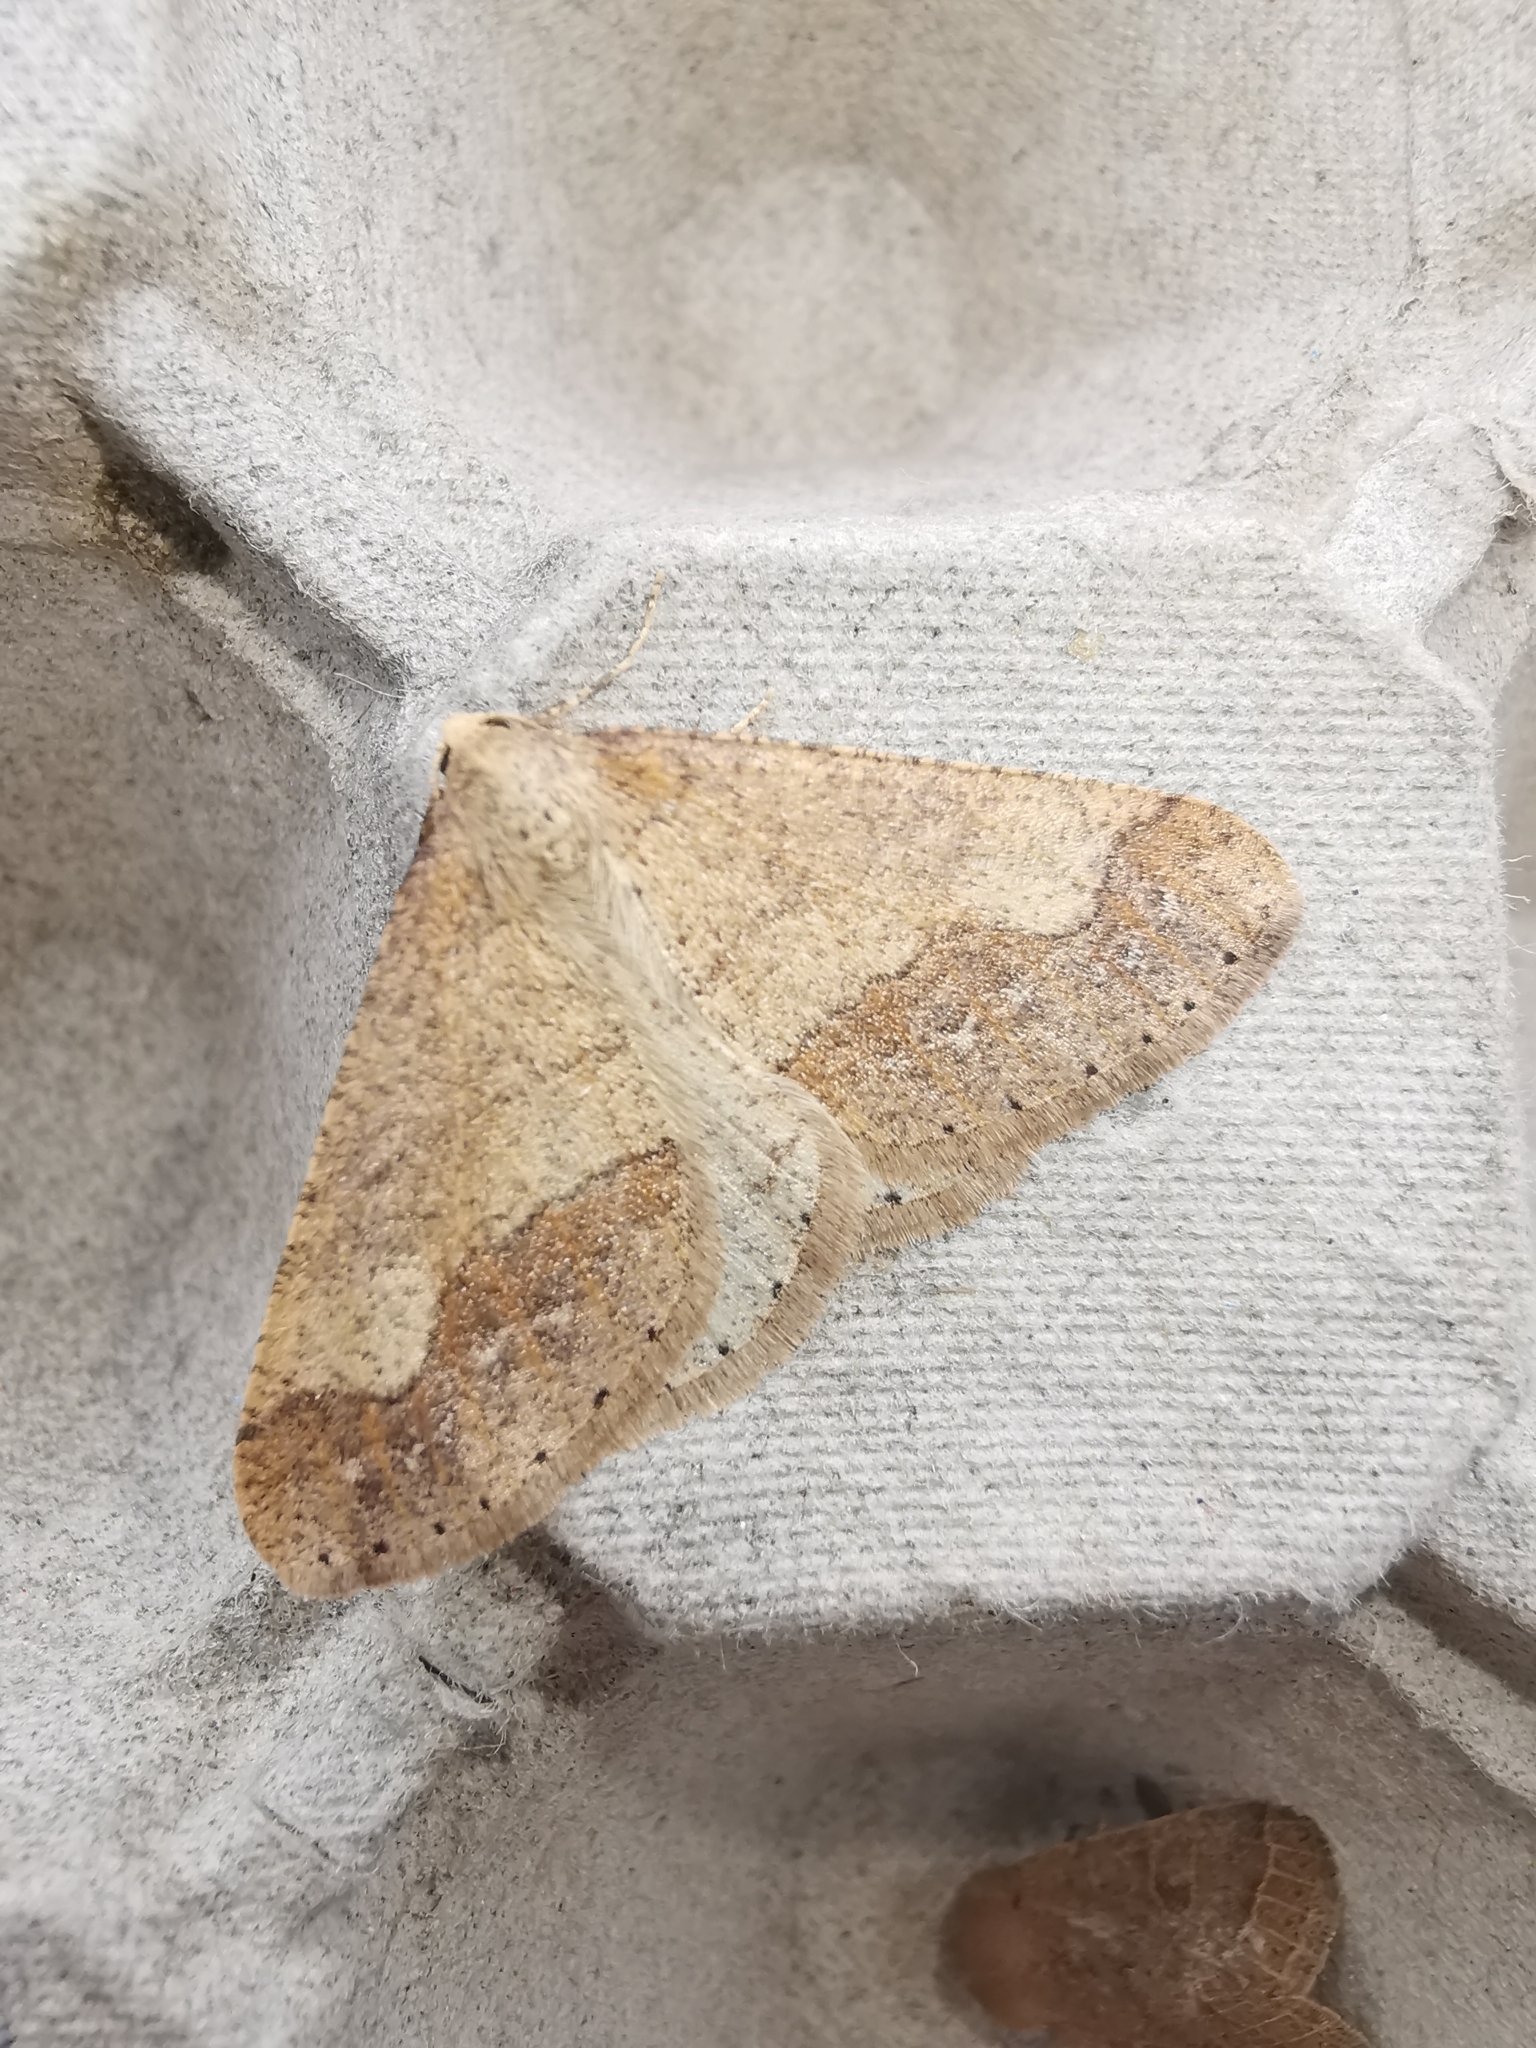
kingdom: Animalia
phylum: Arthropoda
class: Insecta
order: Lepidoptera
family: Geometridae
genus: Agriopis
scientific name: Agriopis marginaria
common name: Dotted border
